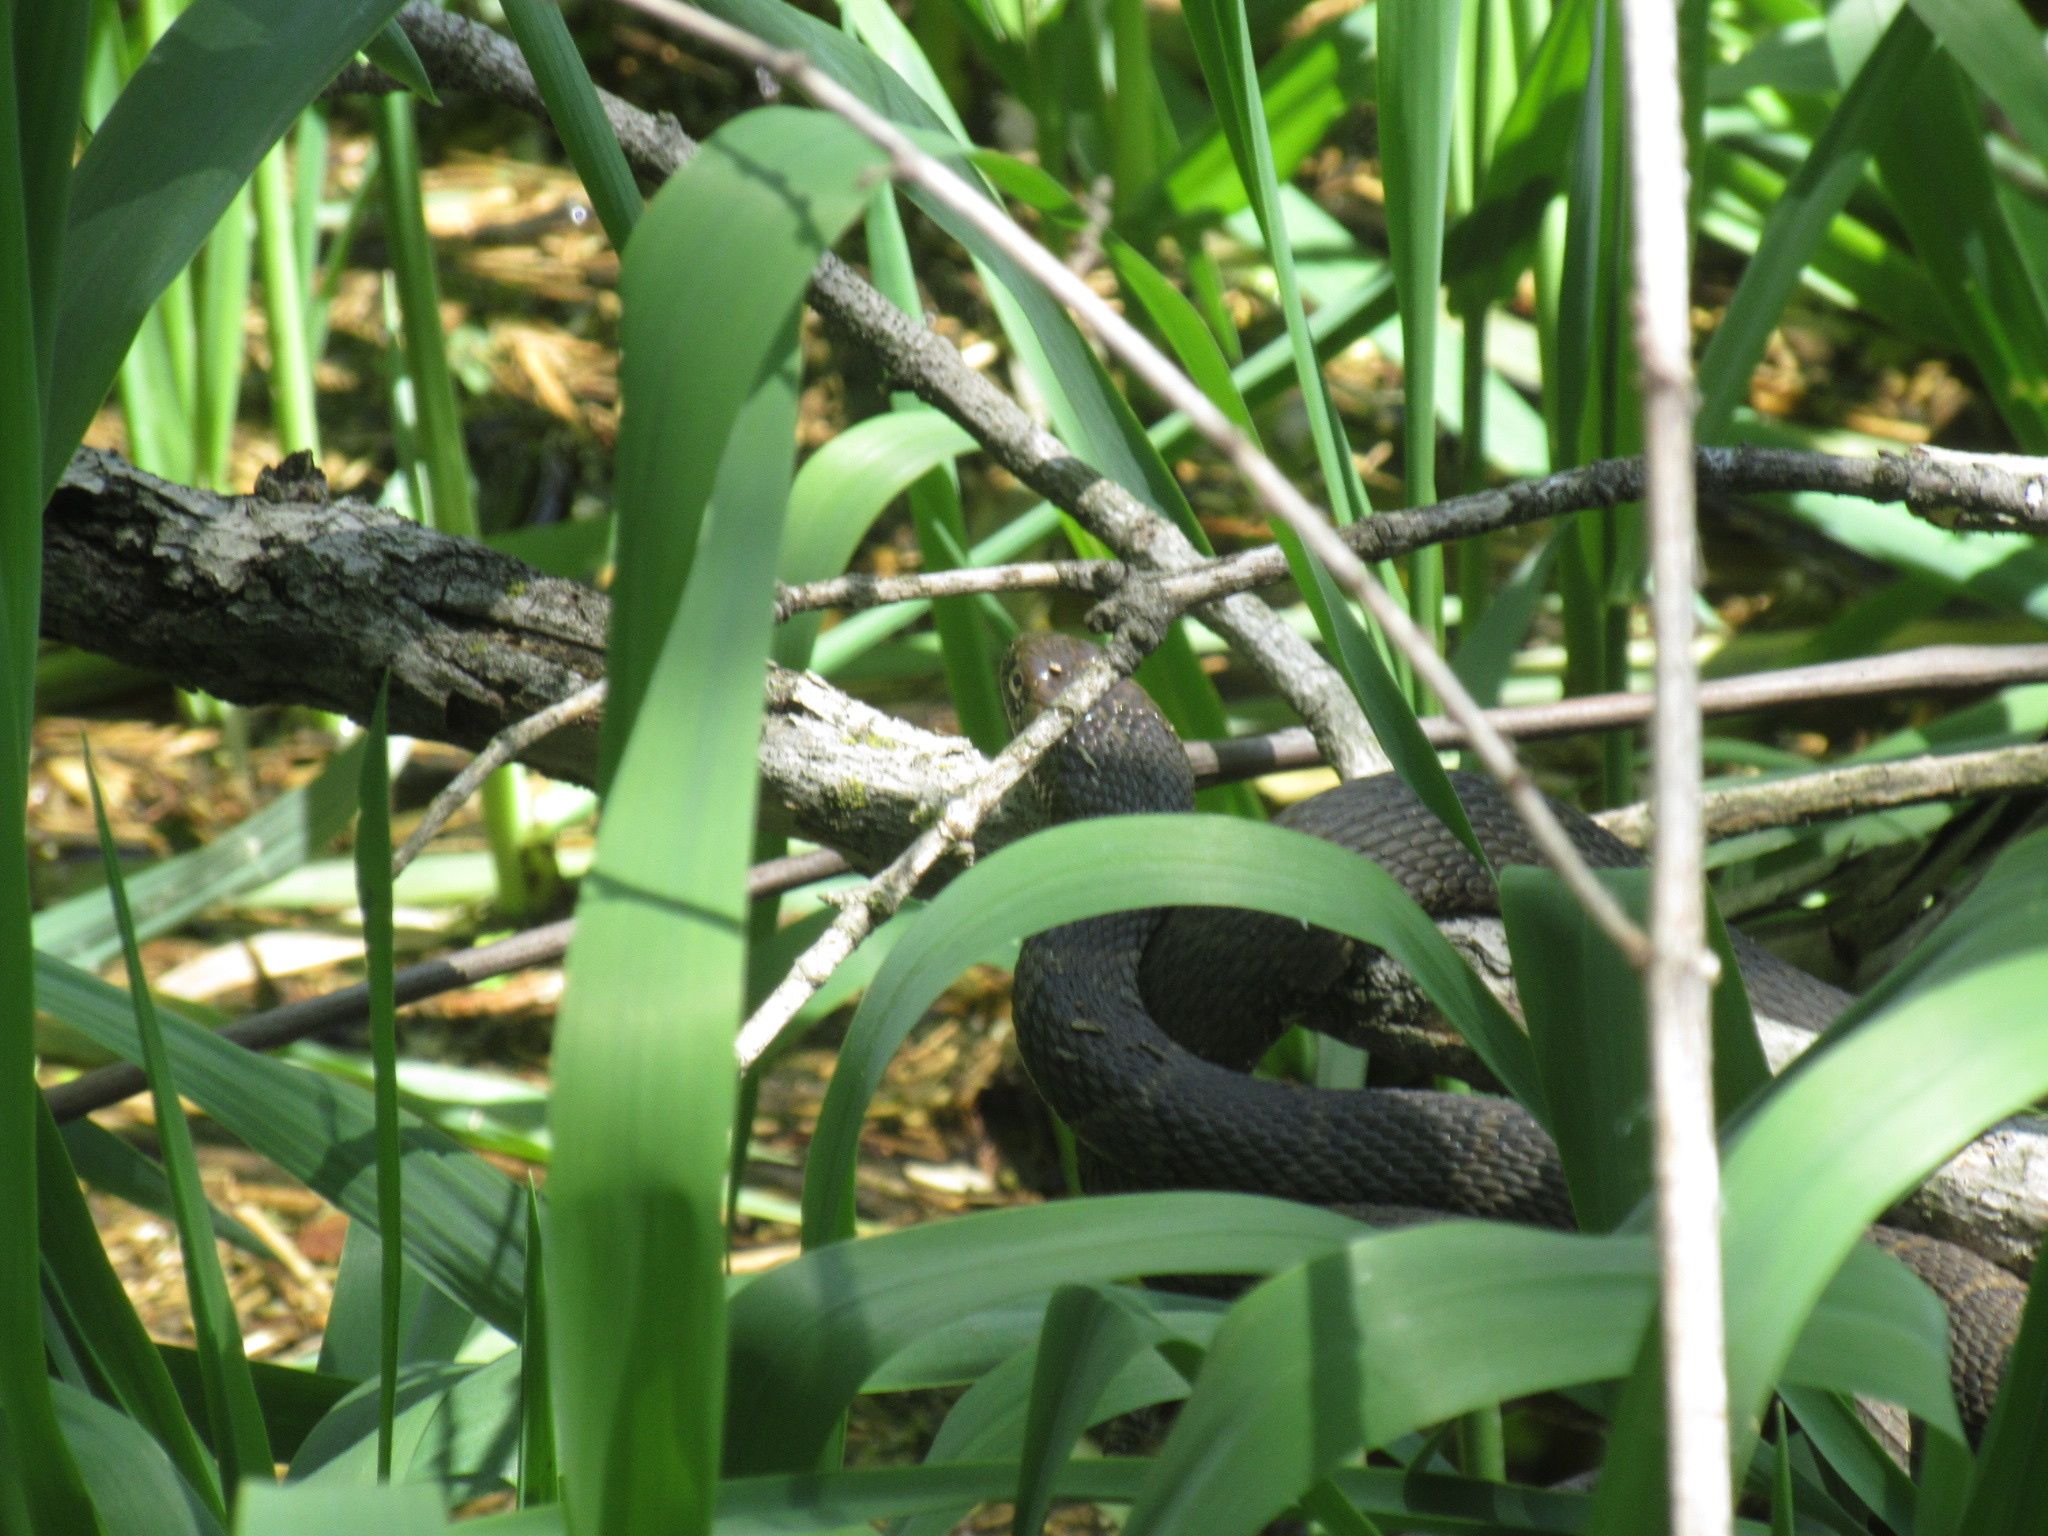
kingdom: Animalia
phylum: Chordata
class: Squamata
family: Colubridae
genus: Nerodia
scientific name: Nerodia sipedon
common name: Northern water snake
